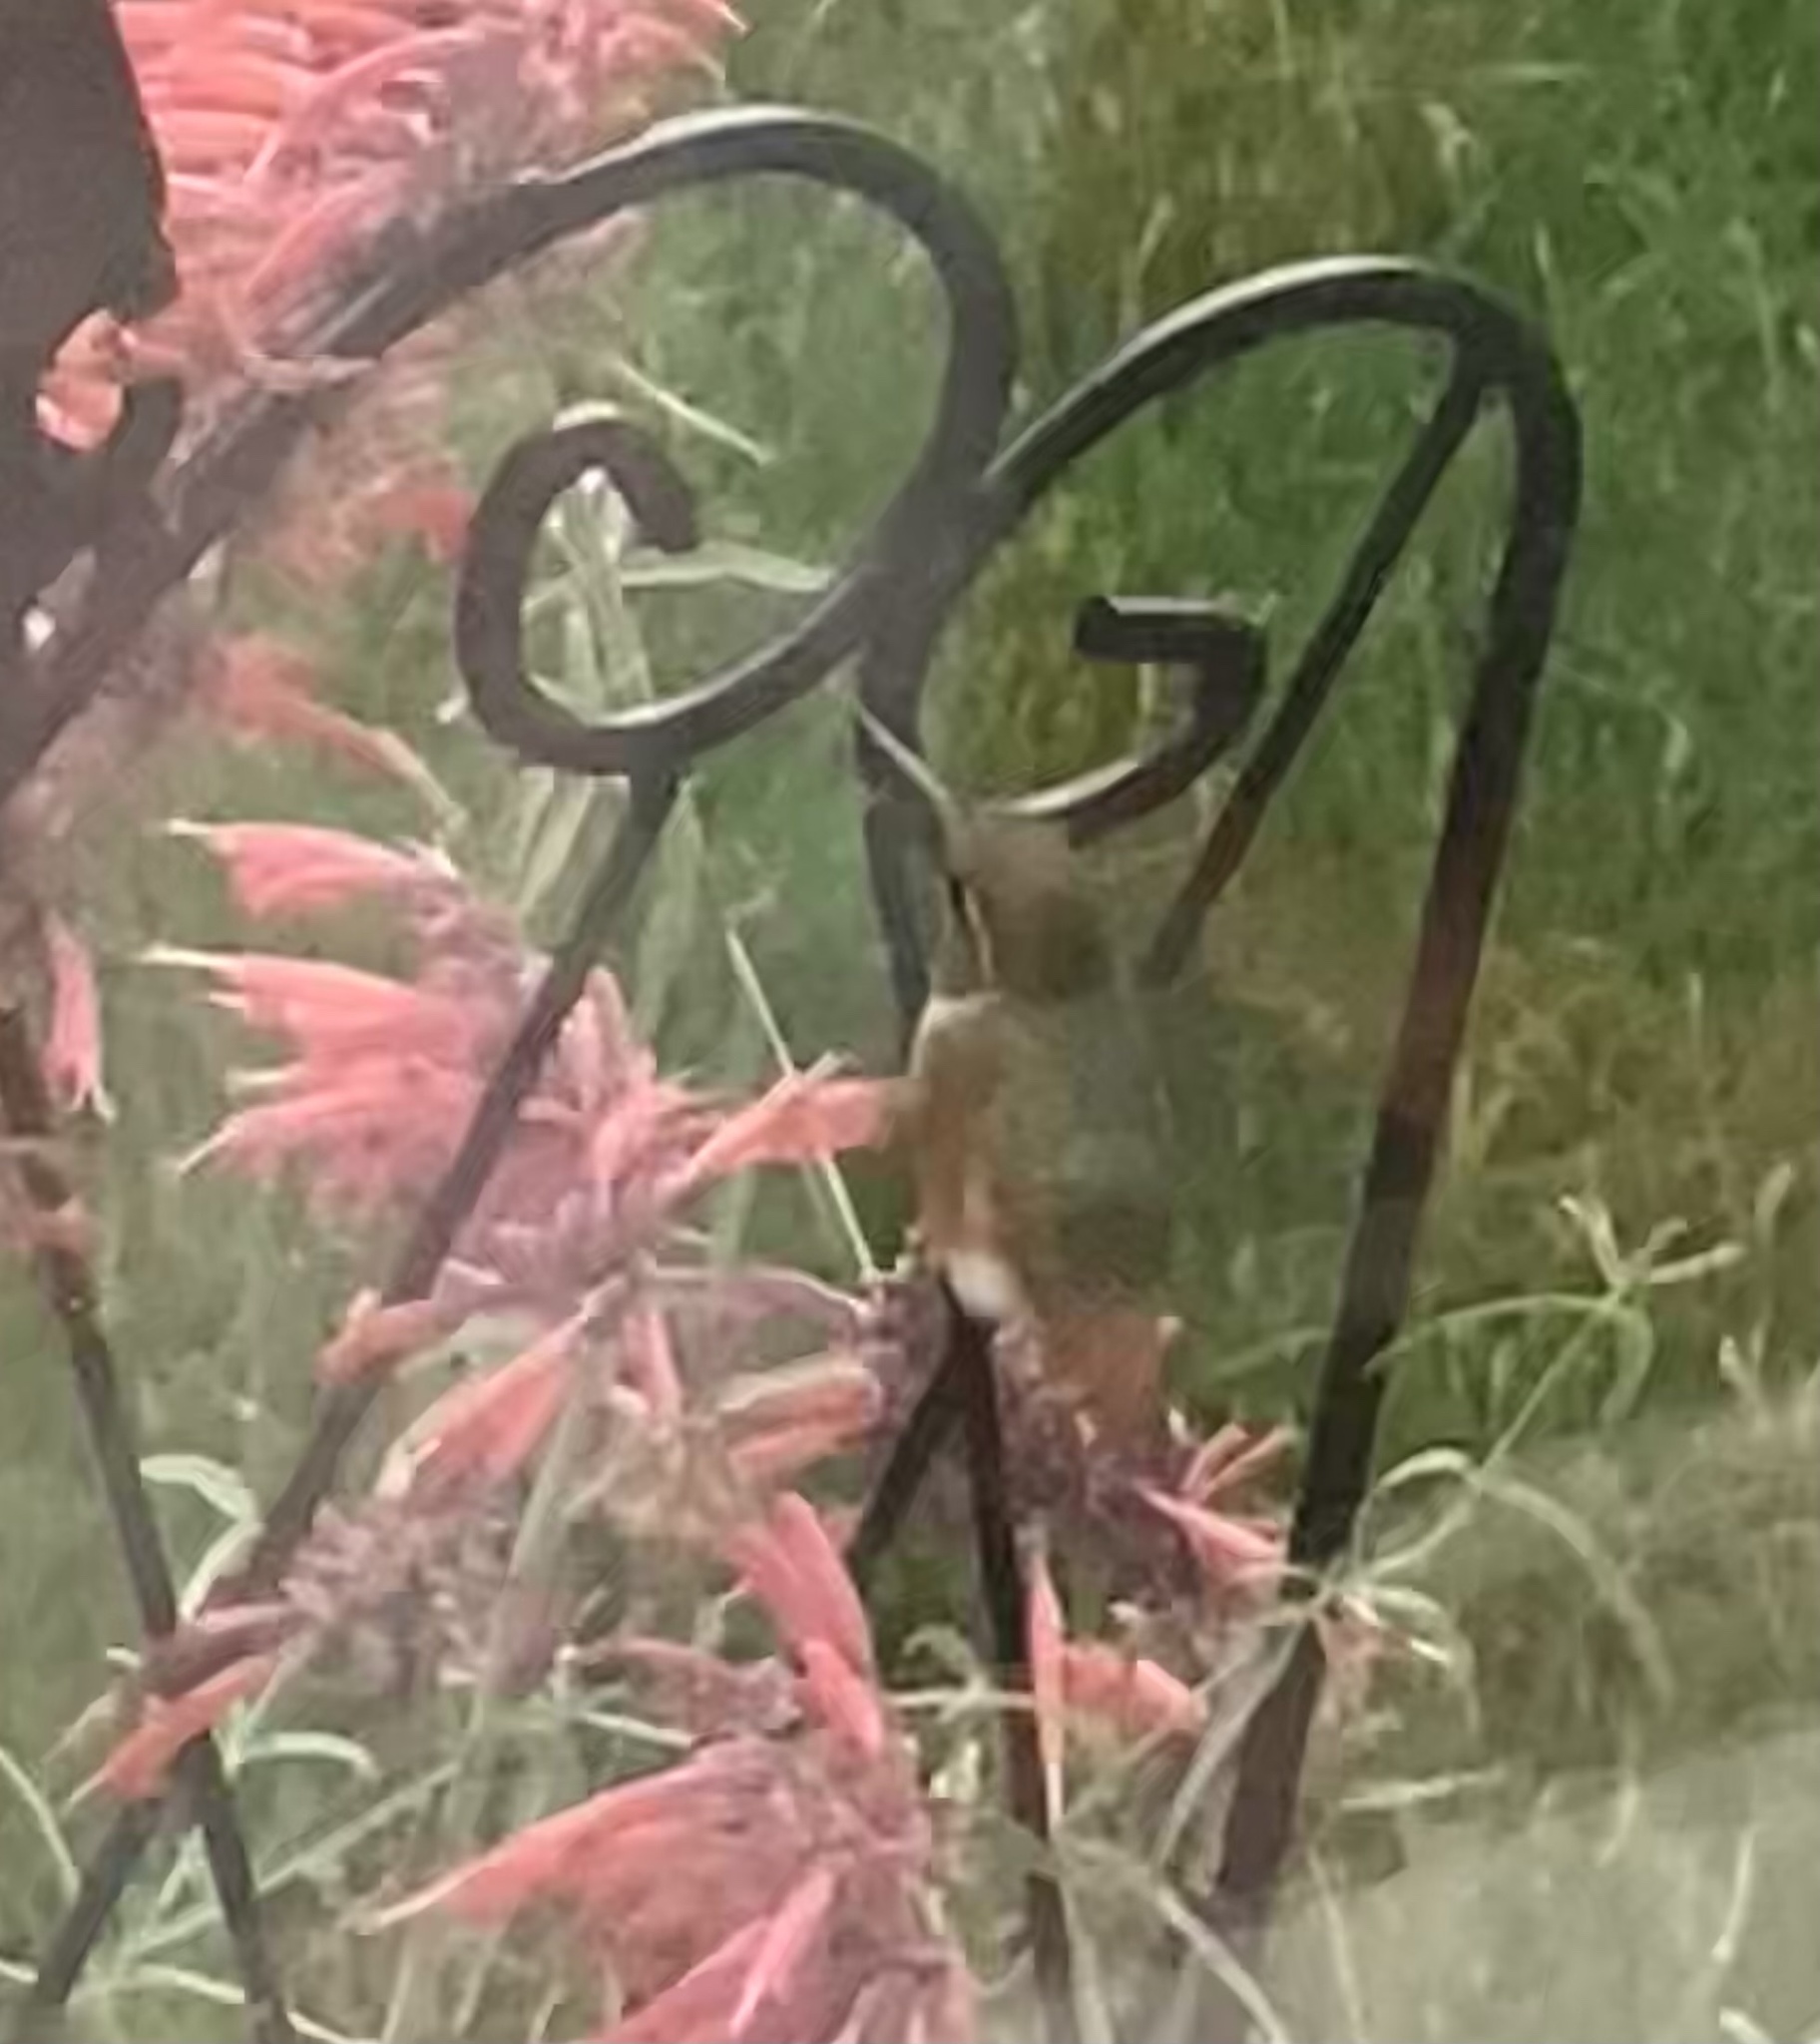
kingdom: Animalia
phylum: Chordata
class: Aves
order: Apodiformes
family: Trochilidae
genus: Selasphorus
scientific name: Selasphorus rufus
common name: Rufous hummingbird
